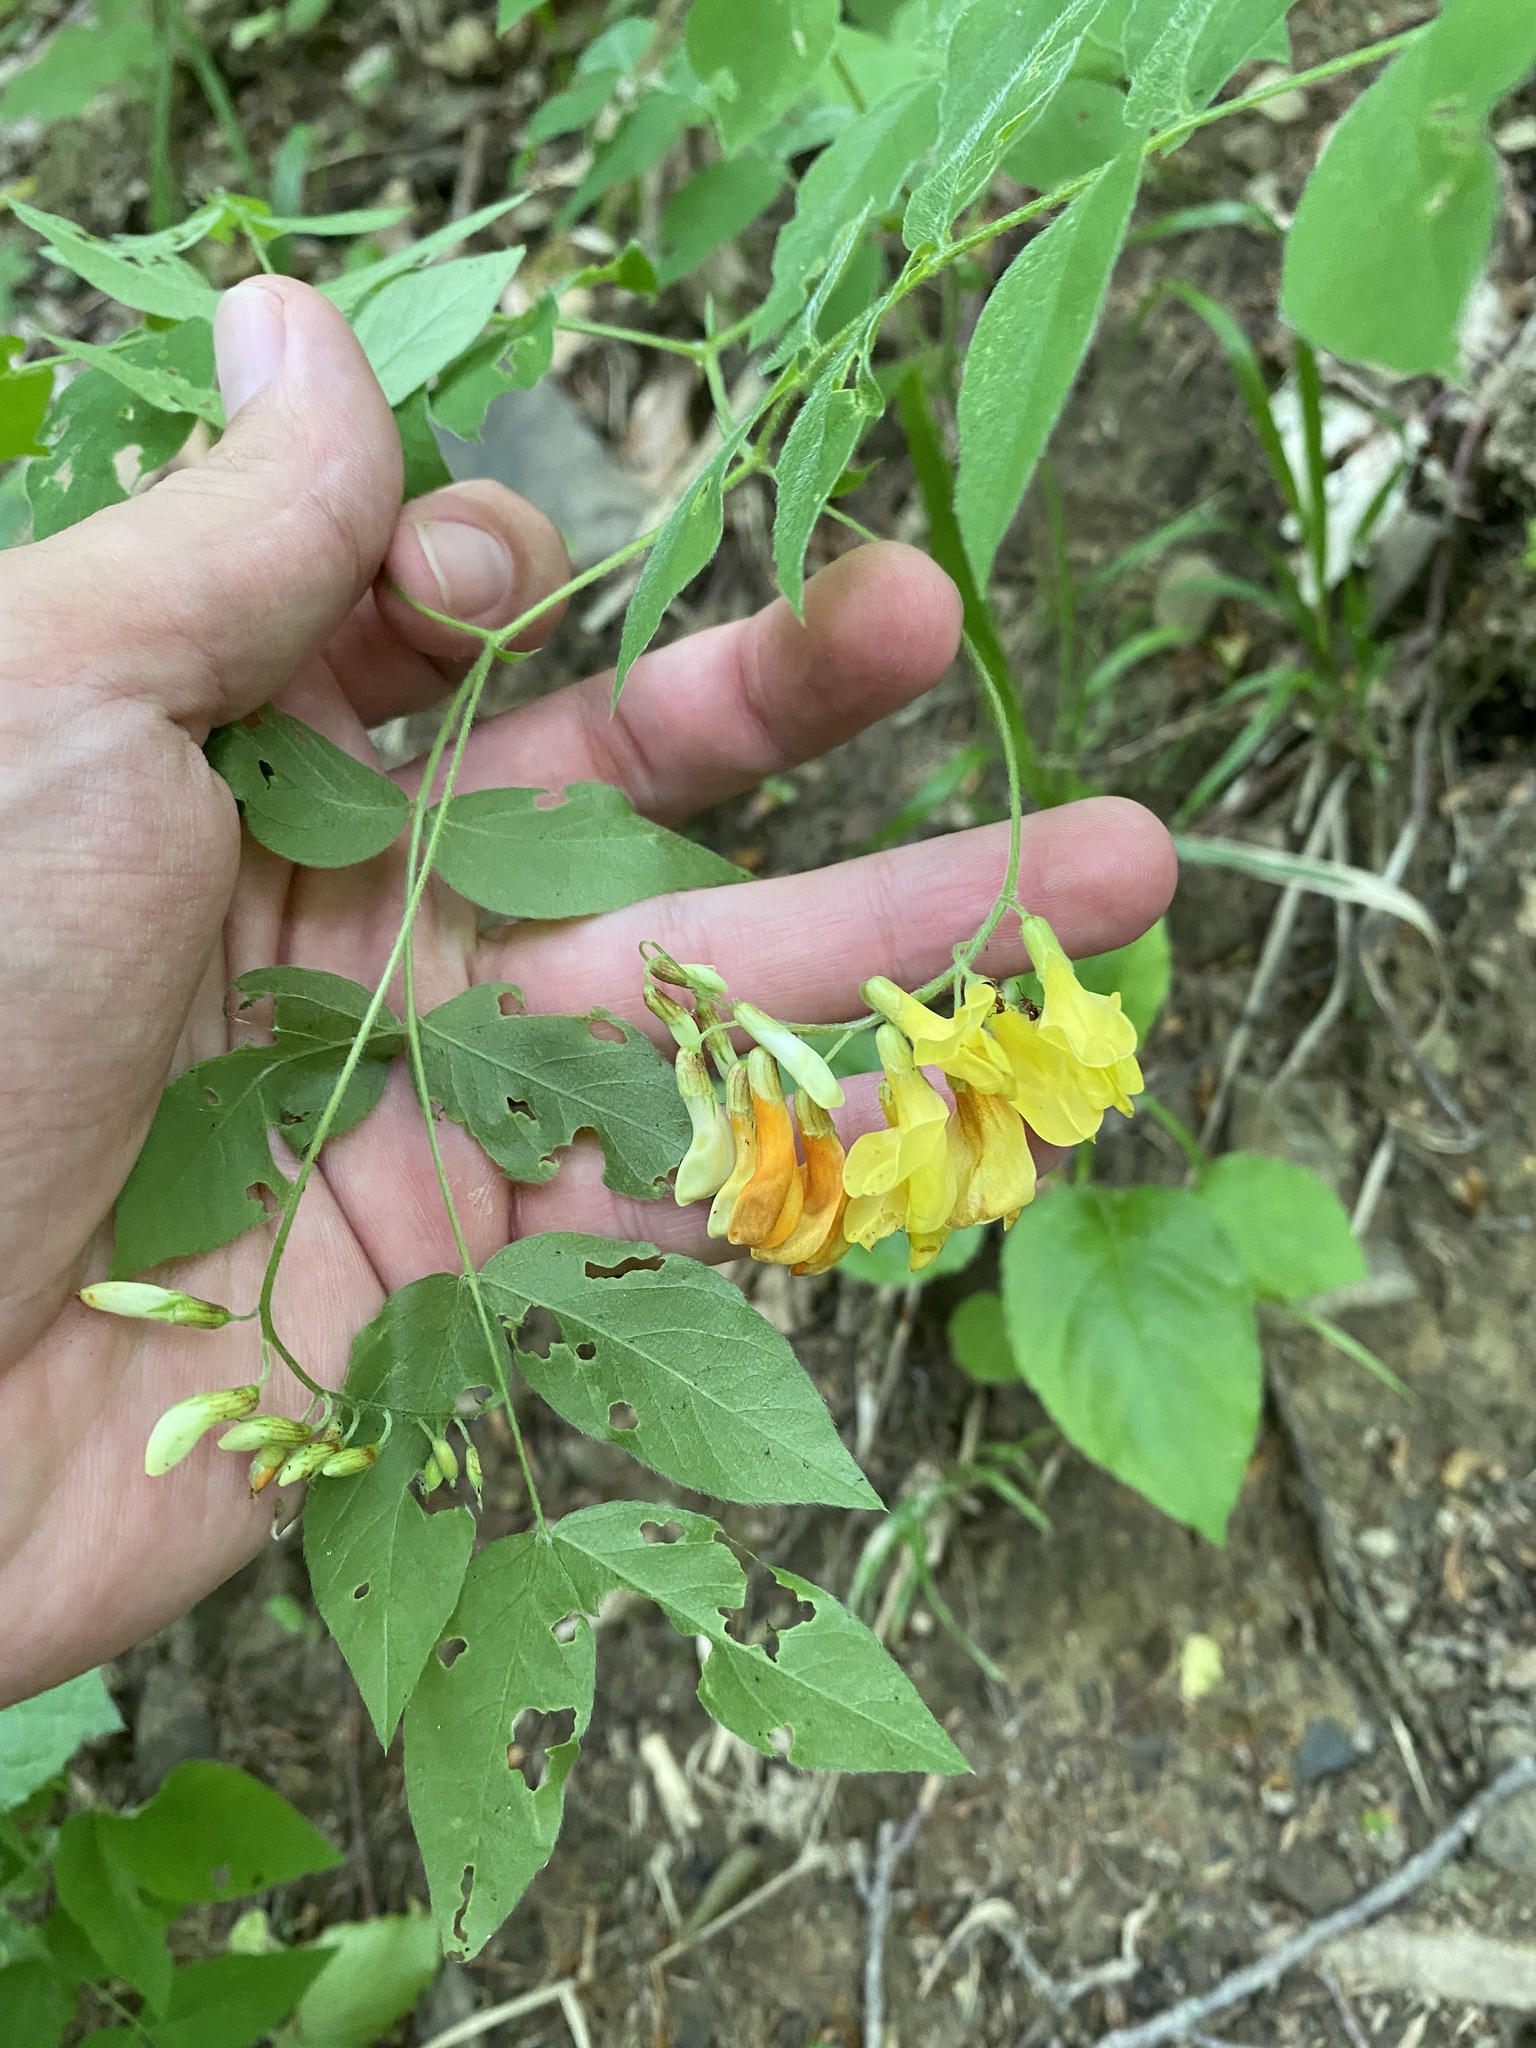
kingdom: Plantae
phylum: Tracheophyta
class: Magnoliopsida
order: Fabales
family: Fabaceae
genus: Vicia
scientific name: Vicia crocea
